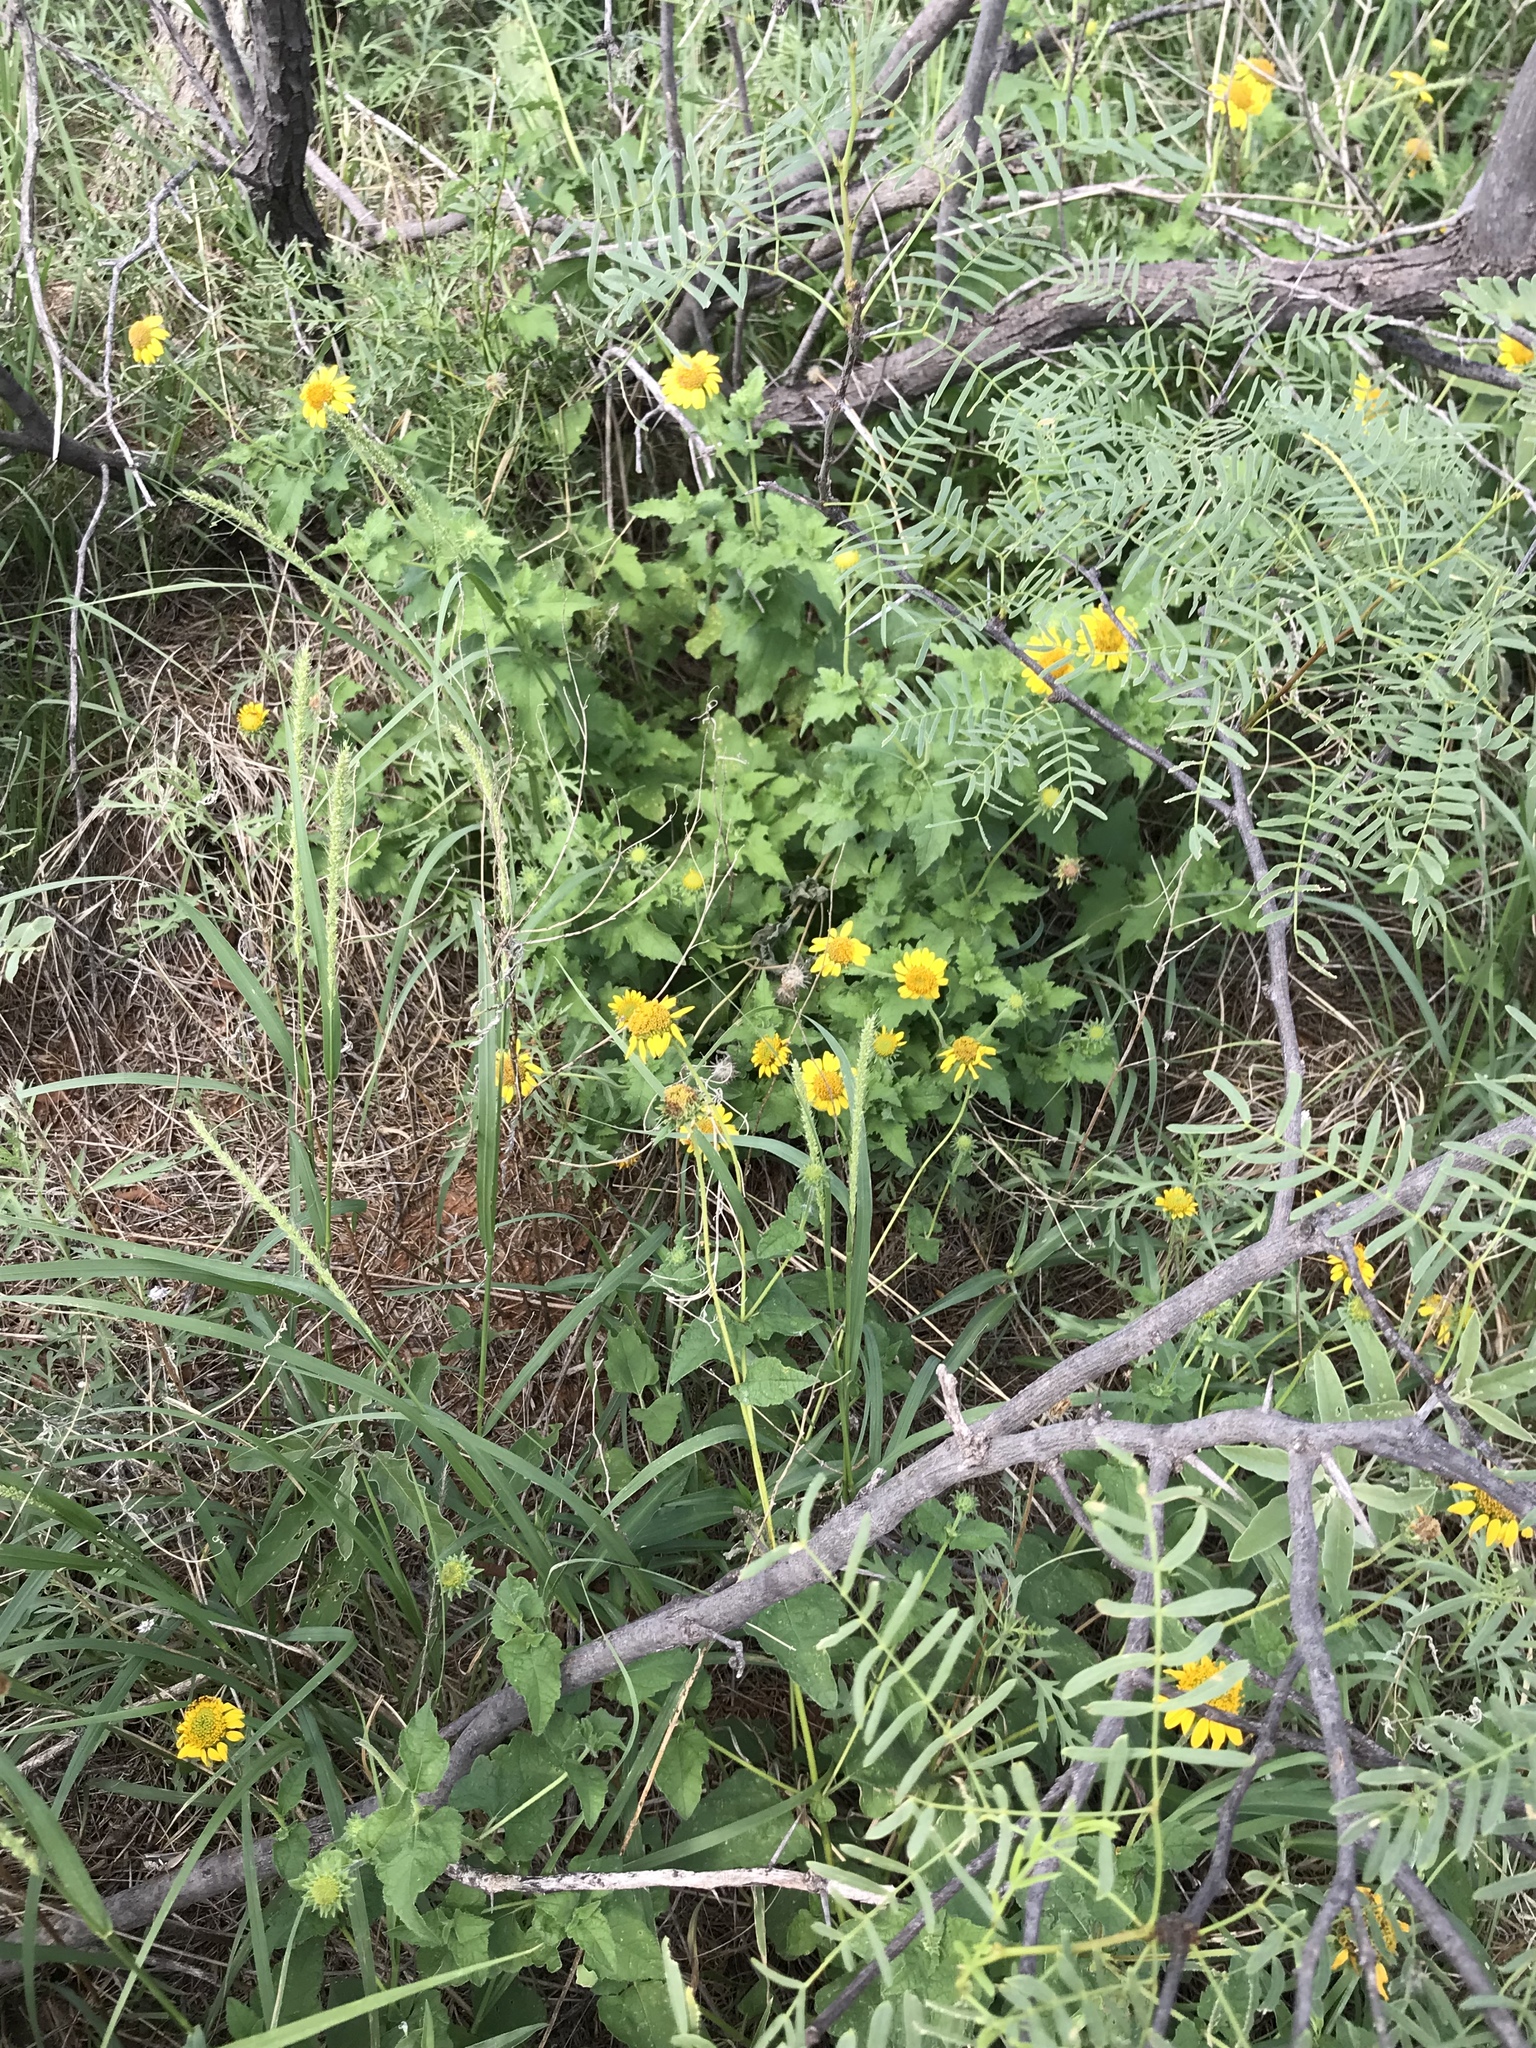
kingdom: Plantae
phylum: Tracheophyta
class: Magnoliopsida
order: Asterales
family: Asteraceae
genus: Simsia
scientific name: Simsia calva
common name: Awnless bush-sunflower
